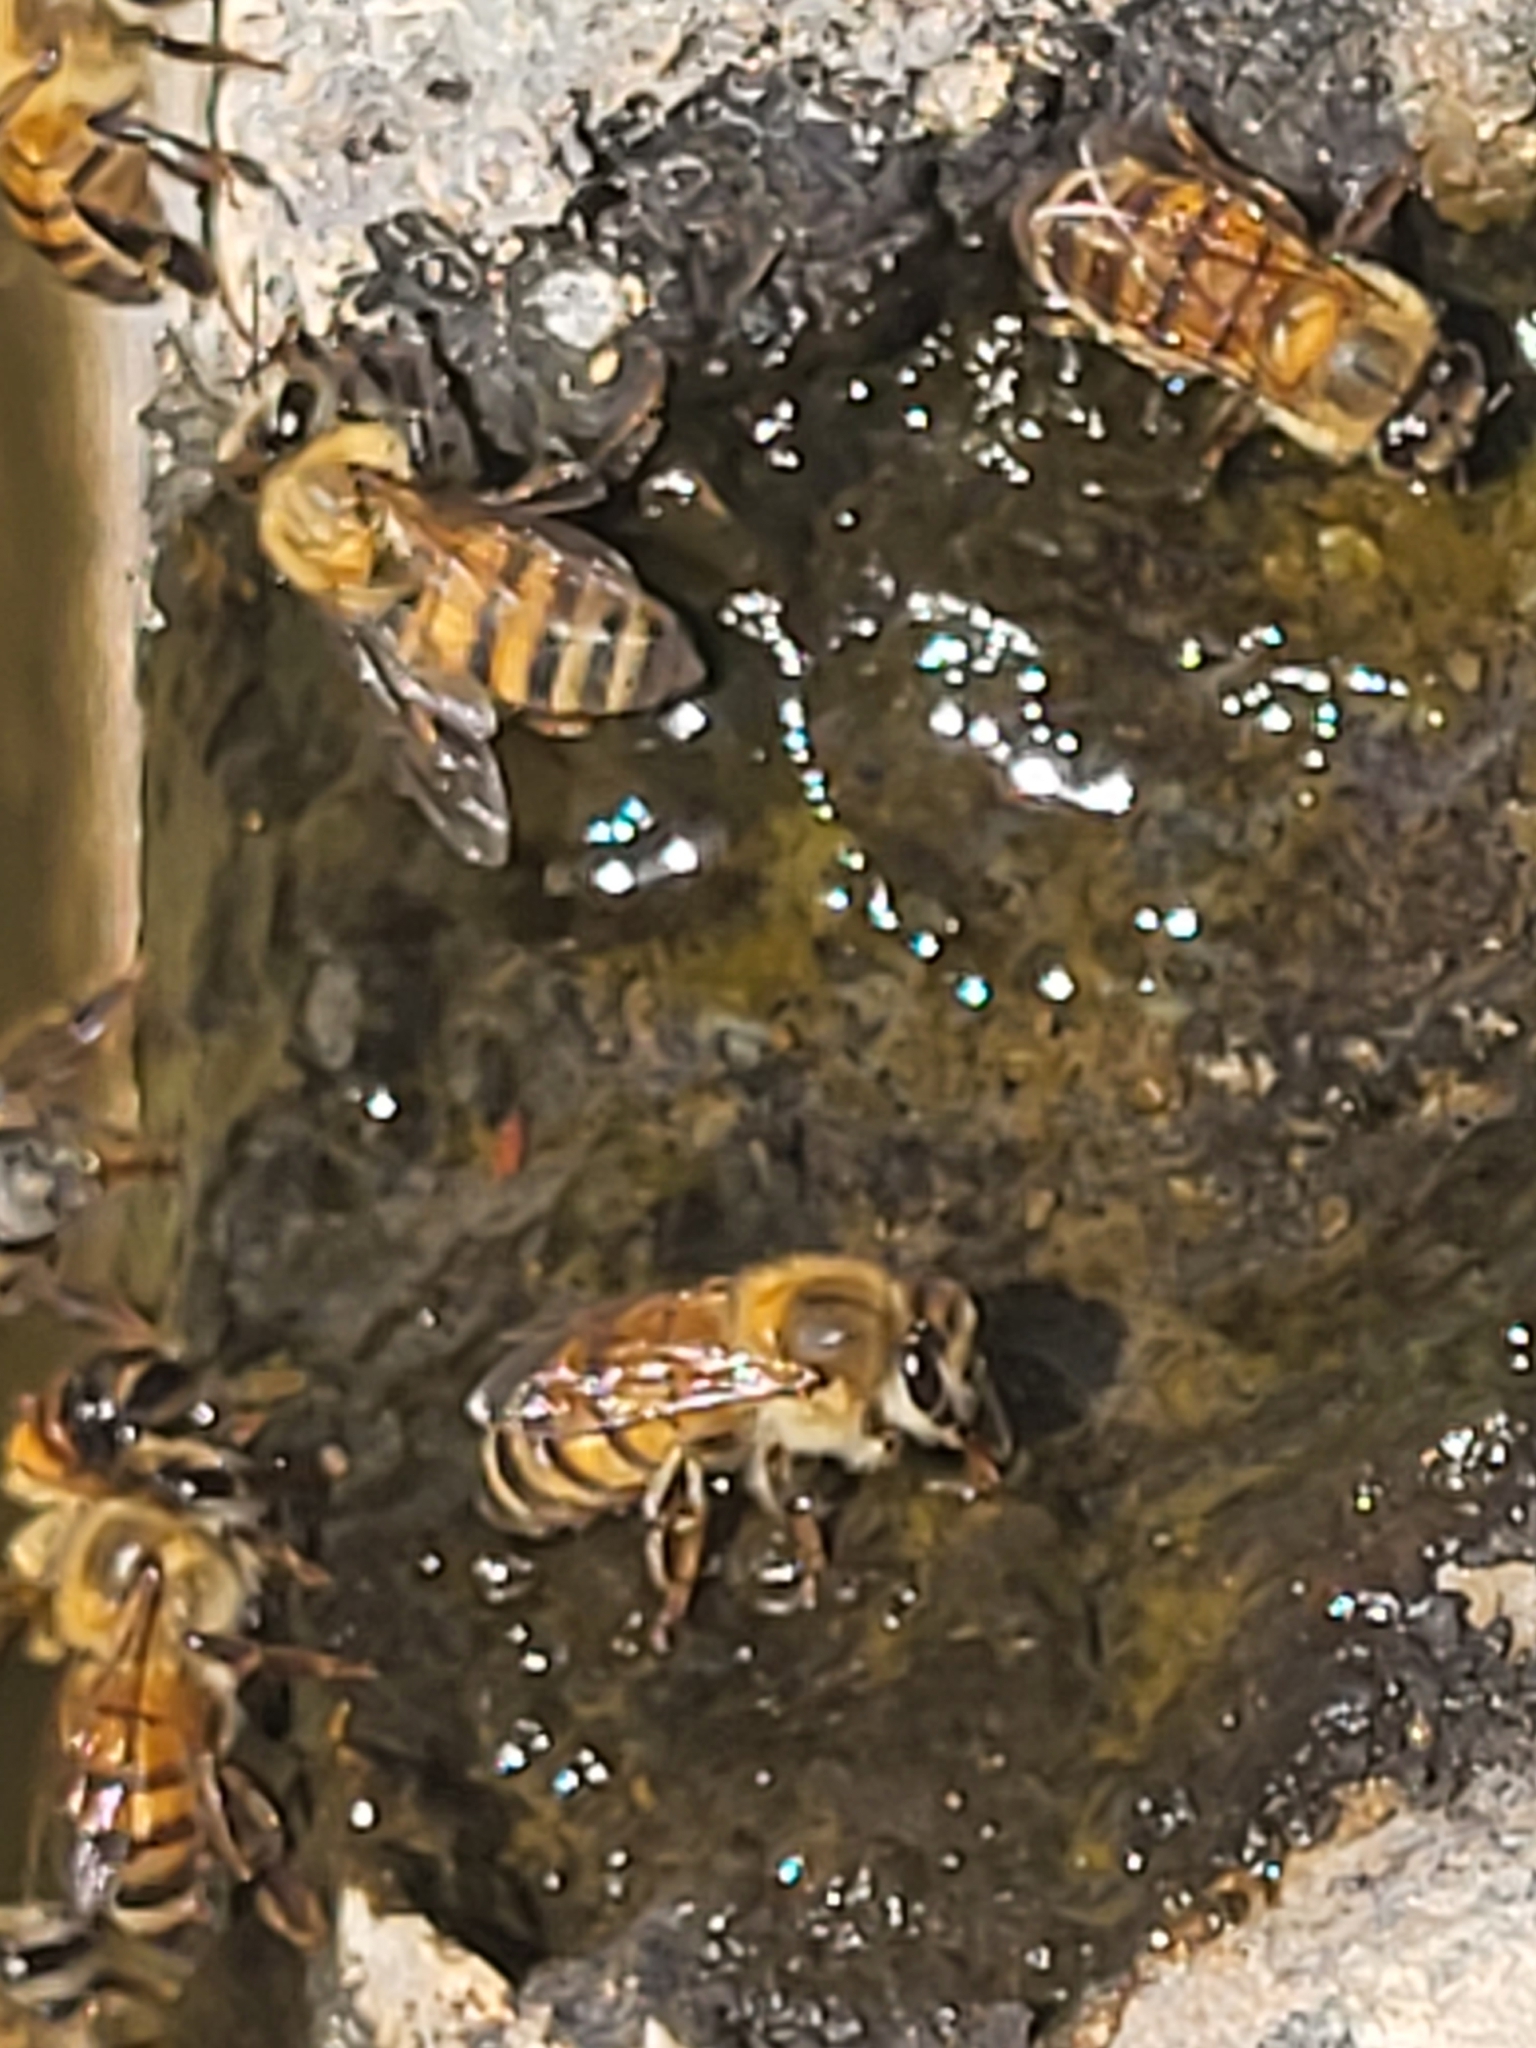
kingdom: Animalia
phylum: Arthropoda
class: Insecta
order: Hymenoptera
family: Apidae
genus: Apis
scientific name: Apis mellifera
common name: Honey bee
